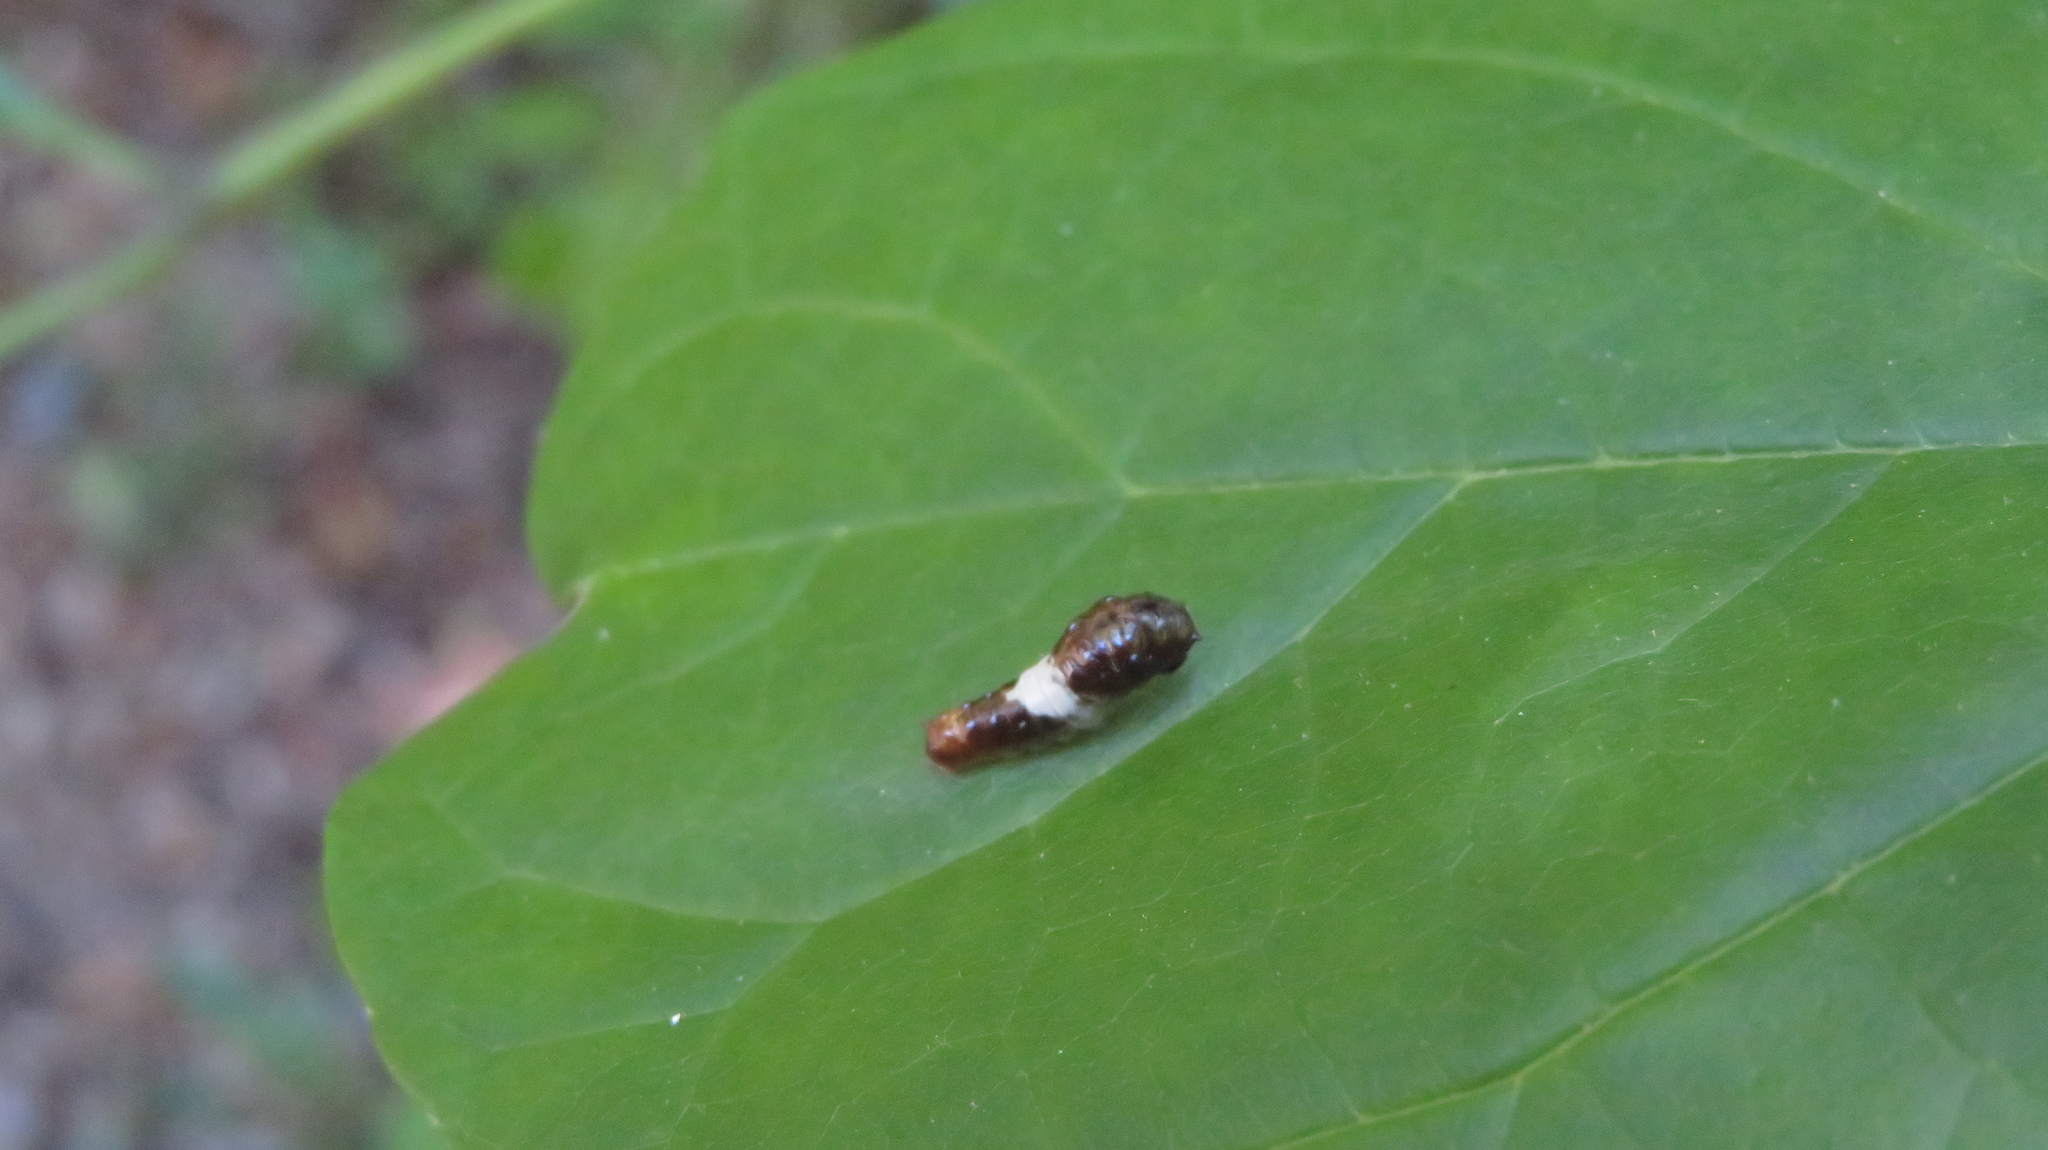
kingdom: Animalia
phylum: Arthropoda
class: Insecta
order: Lepidoptera
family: Papilionidae
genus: Papilio
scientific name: Papilio glaucus
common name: Tiger swallowtail
